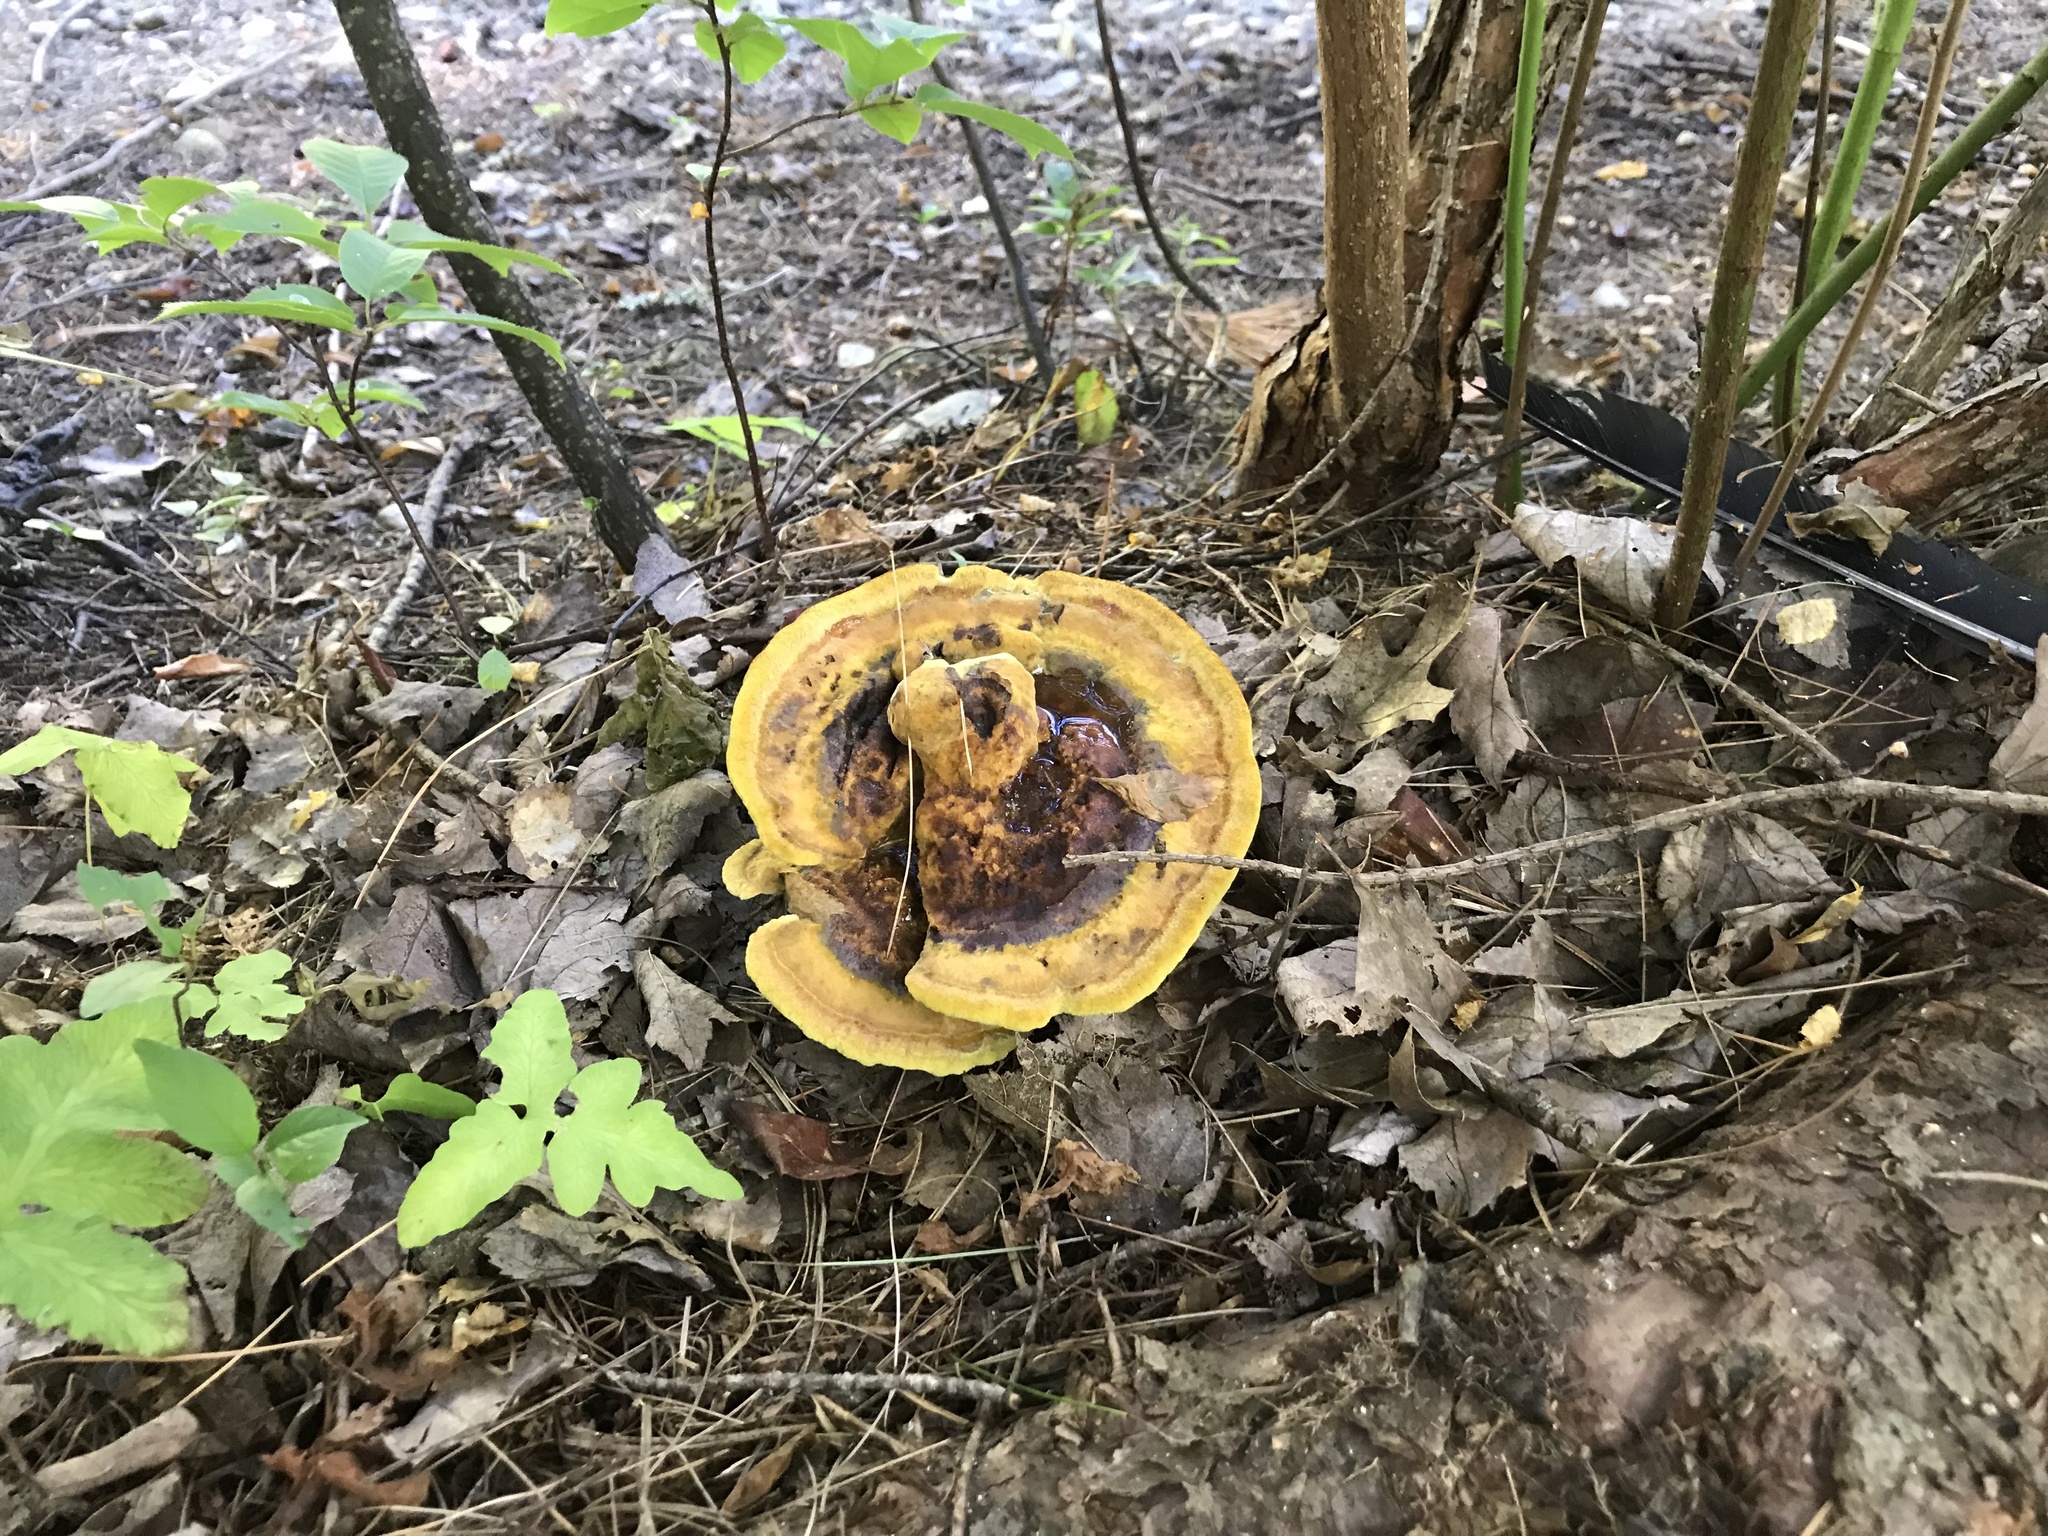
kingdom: Fungi
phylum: Basidiomycota
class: Agaricomycetes
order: Polyporales
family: Laetiporaceae
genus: Phaeolus
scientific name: Phaeolus schweinitzii
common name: Dyer's mazegill
